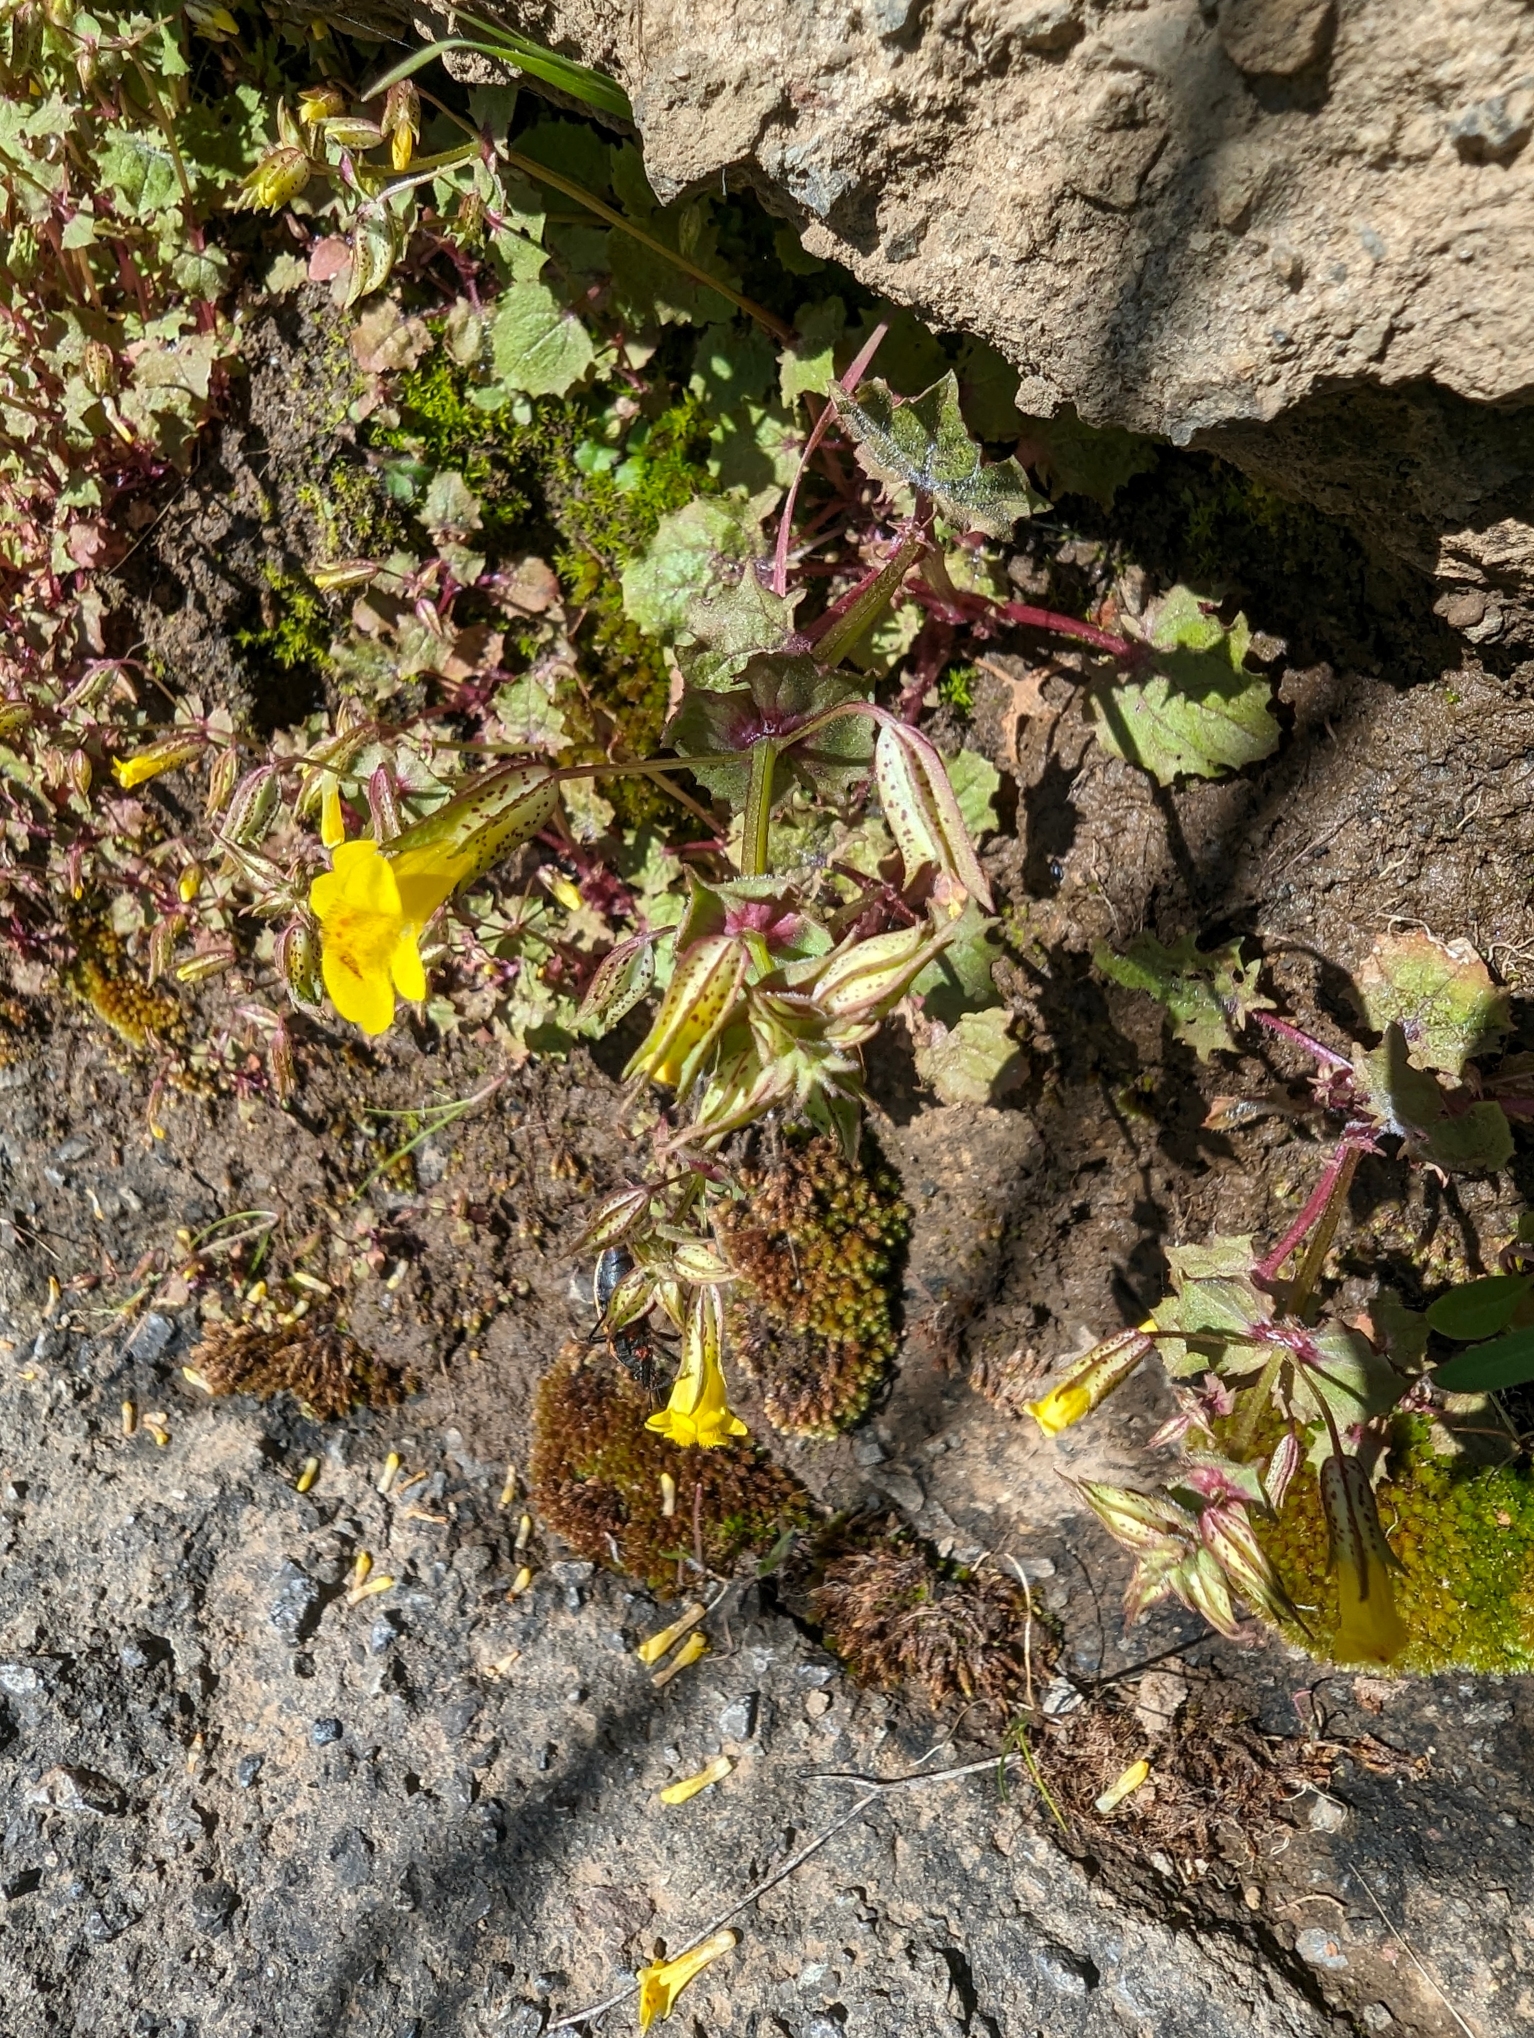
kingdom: Plantae
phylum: Tracheophyta
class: Magnoliopsida
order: Lamiales
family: Phrymaceae
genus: Erythranthe
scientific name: Erythranthe nasuta
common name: Sooke monkeyflower
